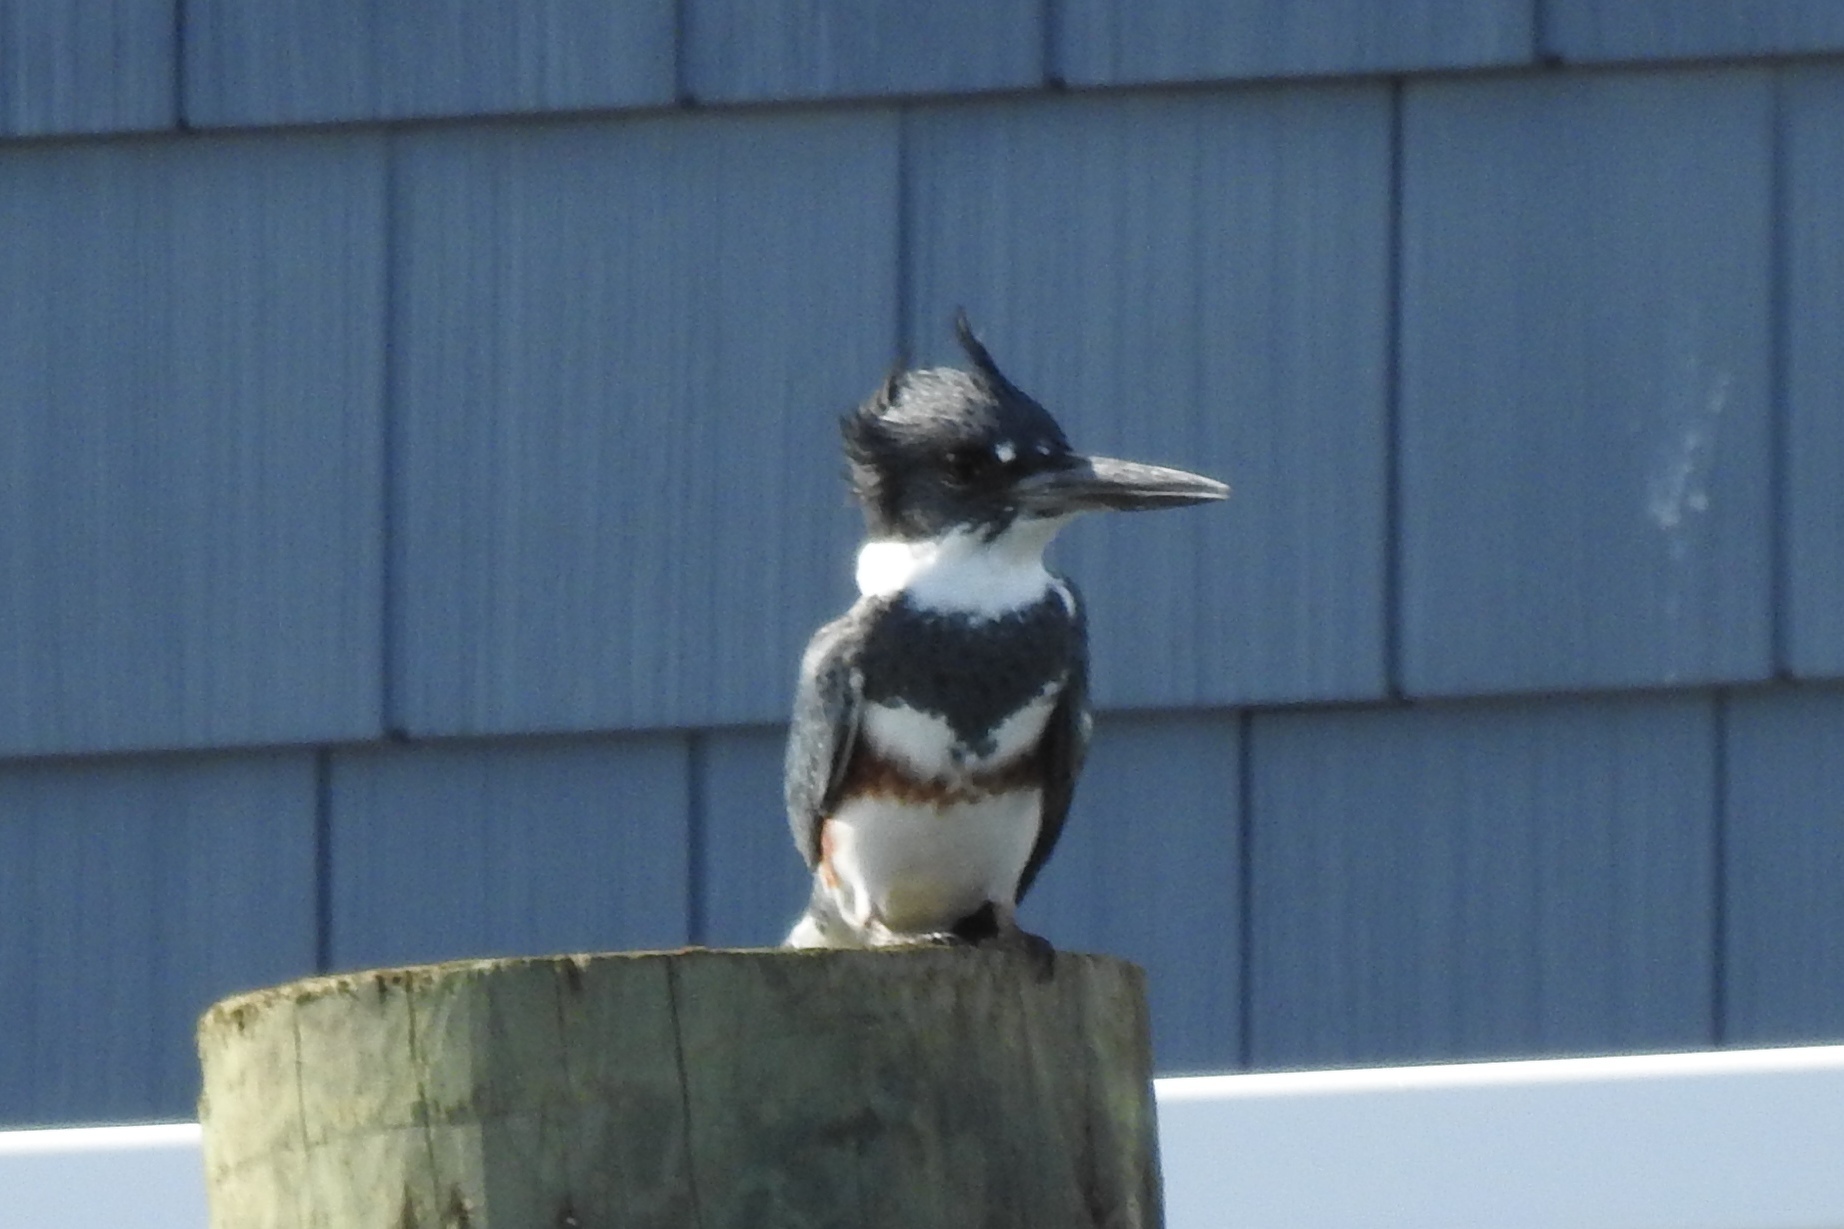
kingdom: Animalia
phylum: Chordata
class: Aves
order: Coraciiformes
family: Alcedinidae
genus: Megaceryle
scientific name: Megaceryle alcyon
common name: Belted kingfisher
